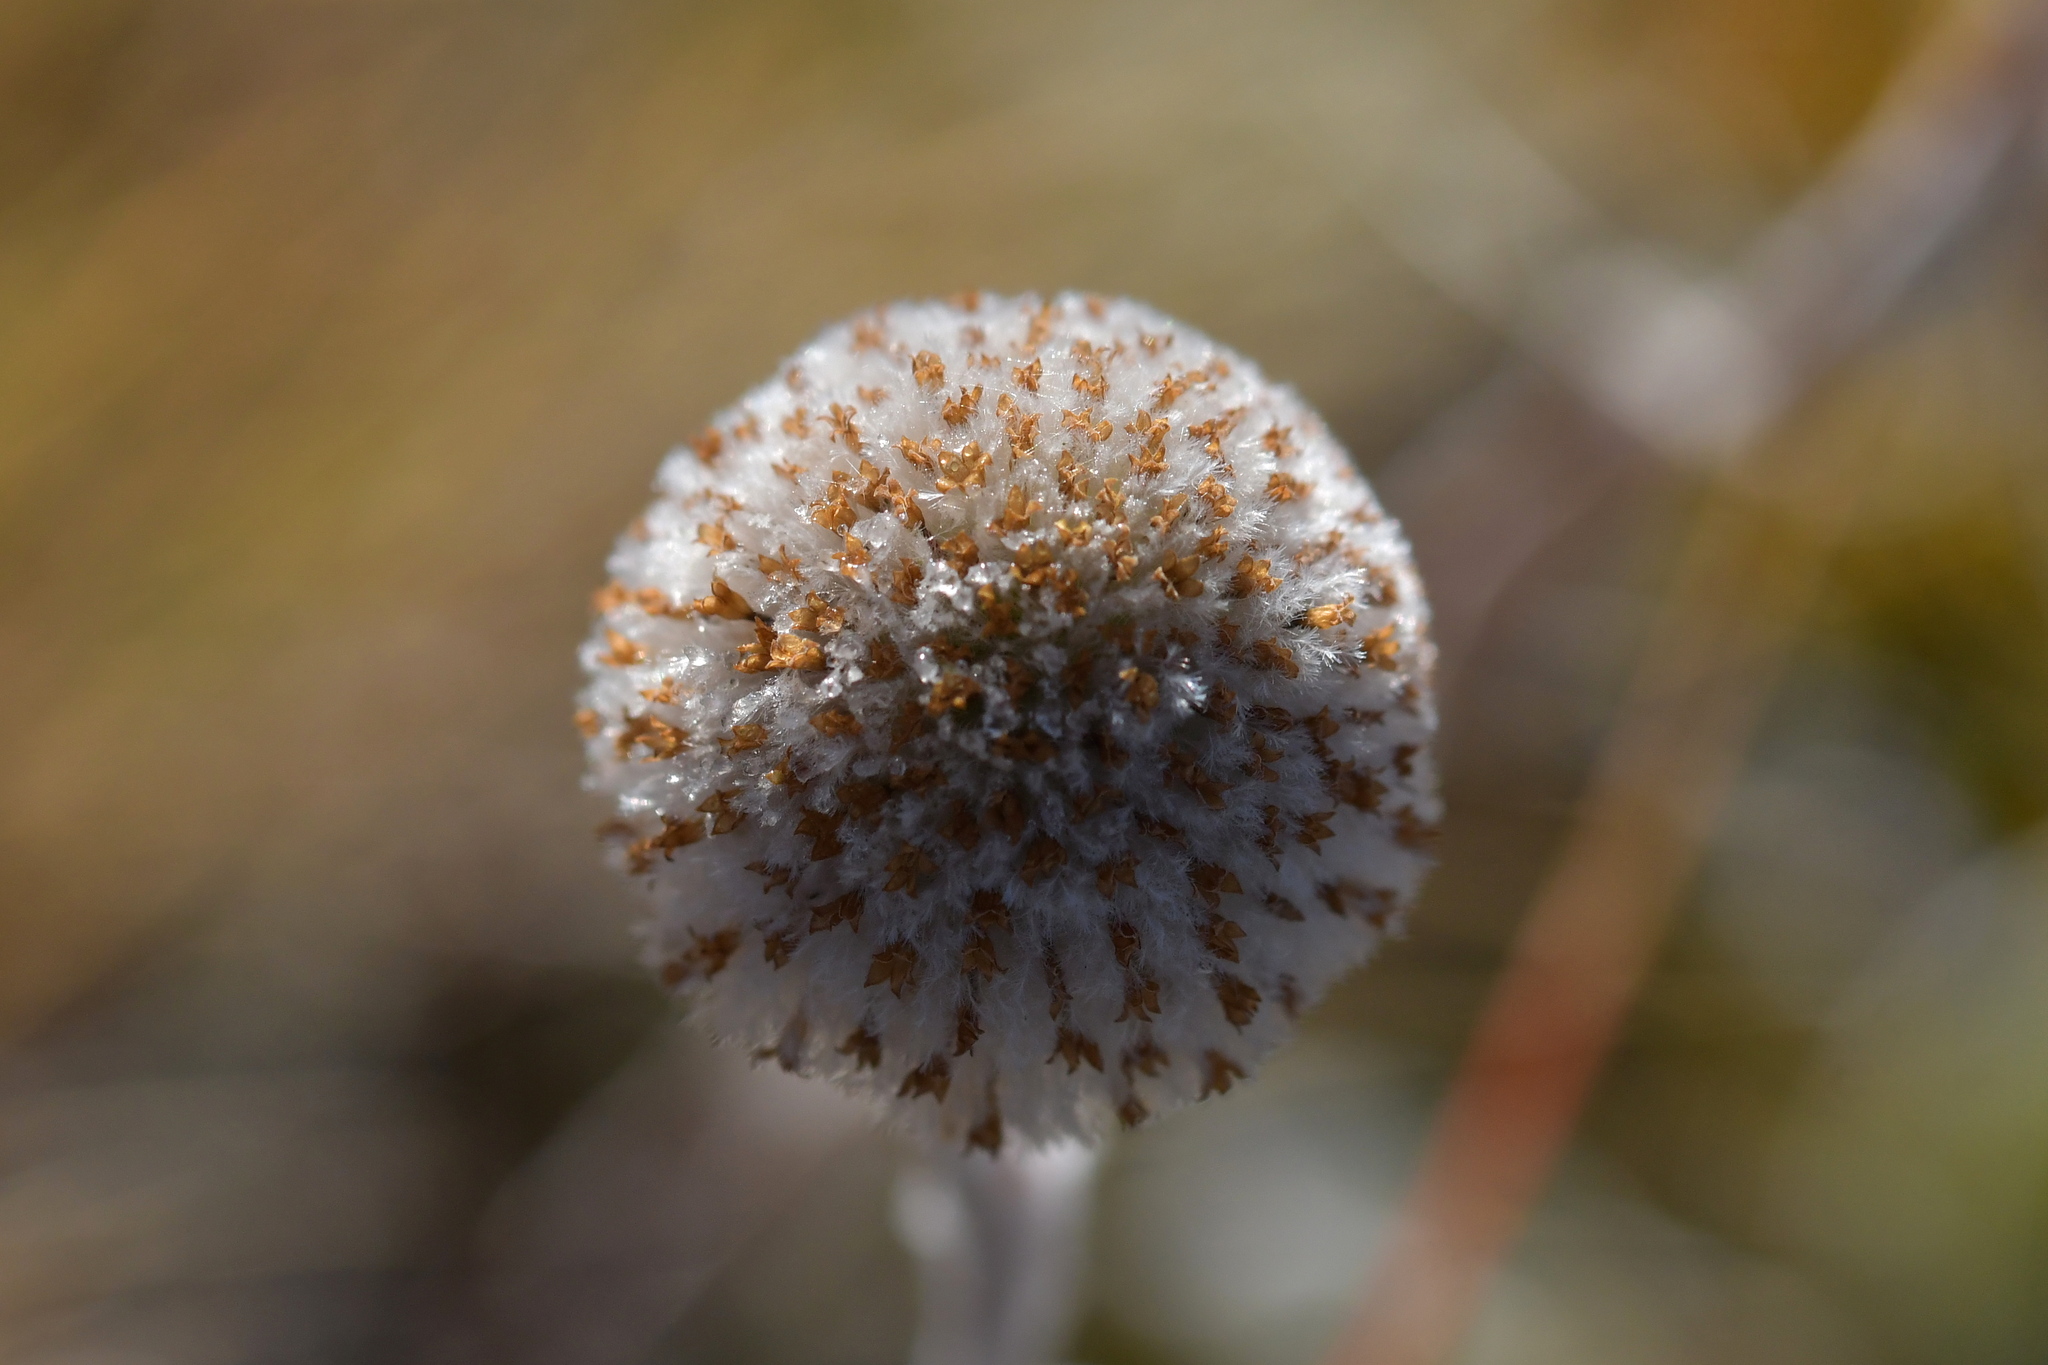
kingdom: Plantae
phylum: Tracheophyta
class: Magnoliopsida
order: Asterales
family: Asteraceae
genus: Craspedia
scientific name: Craspedia lanata
